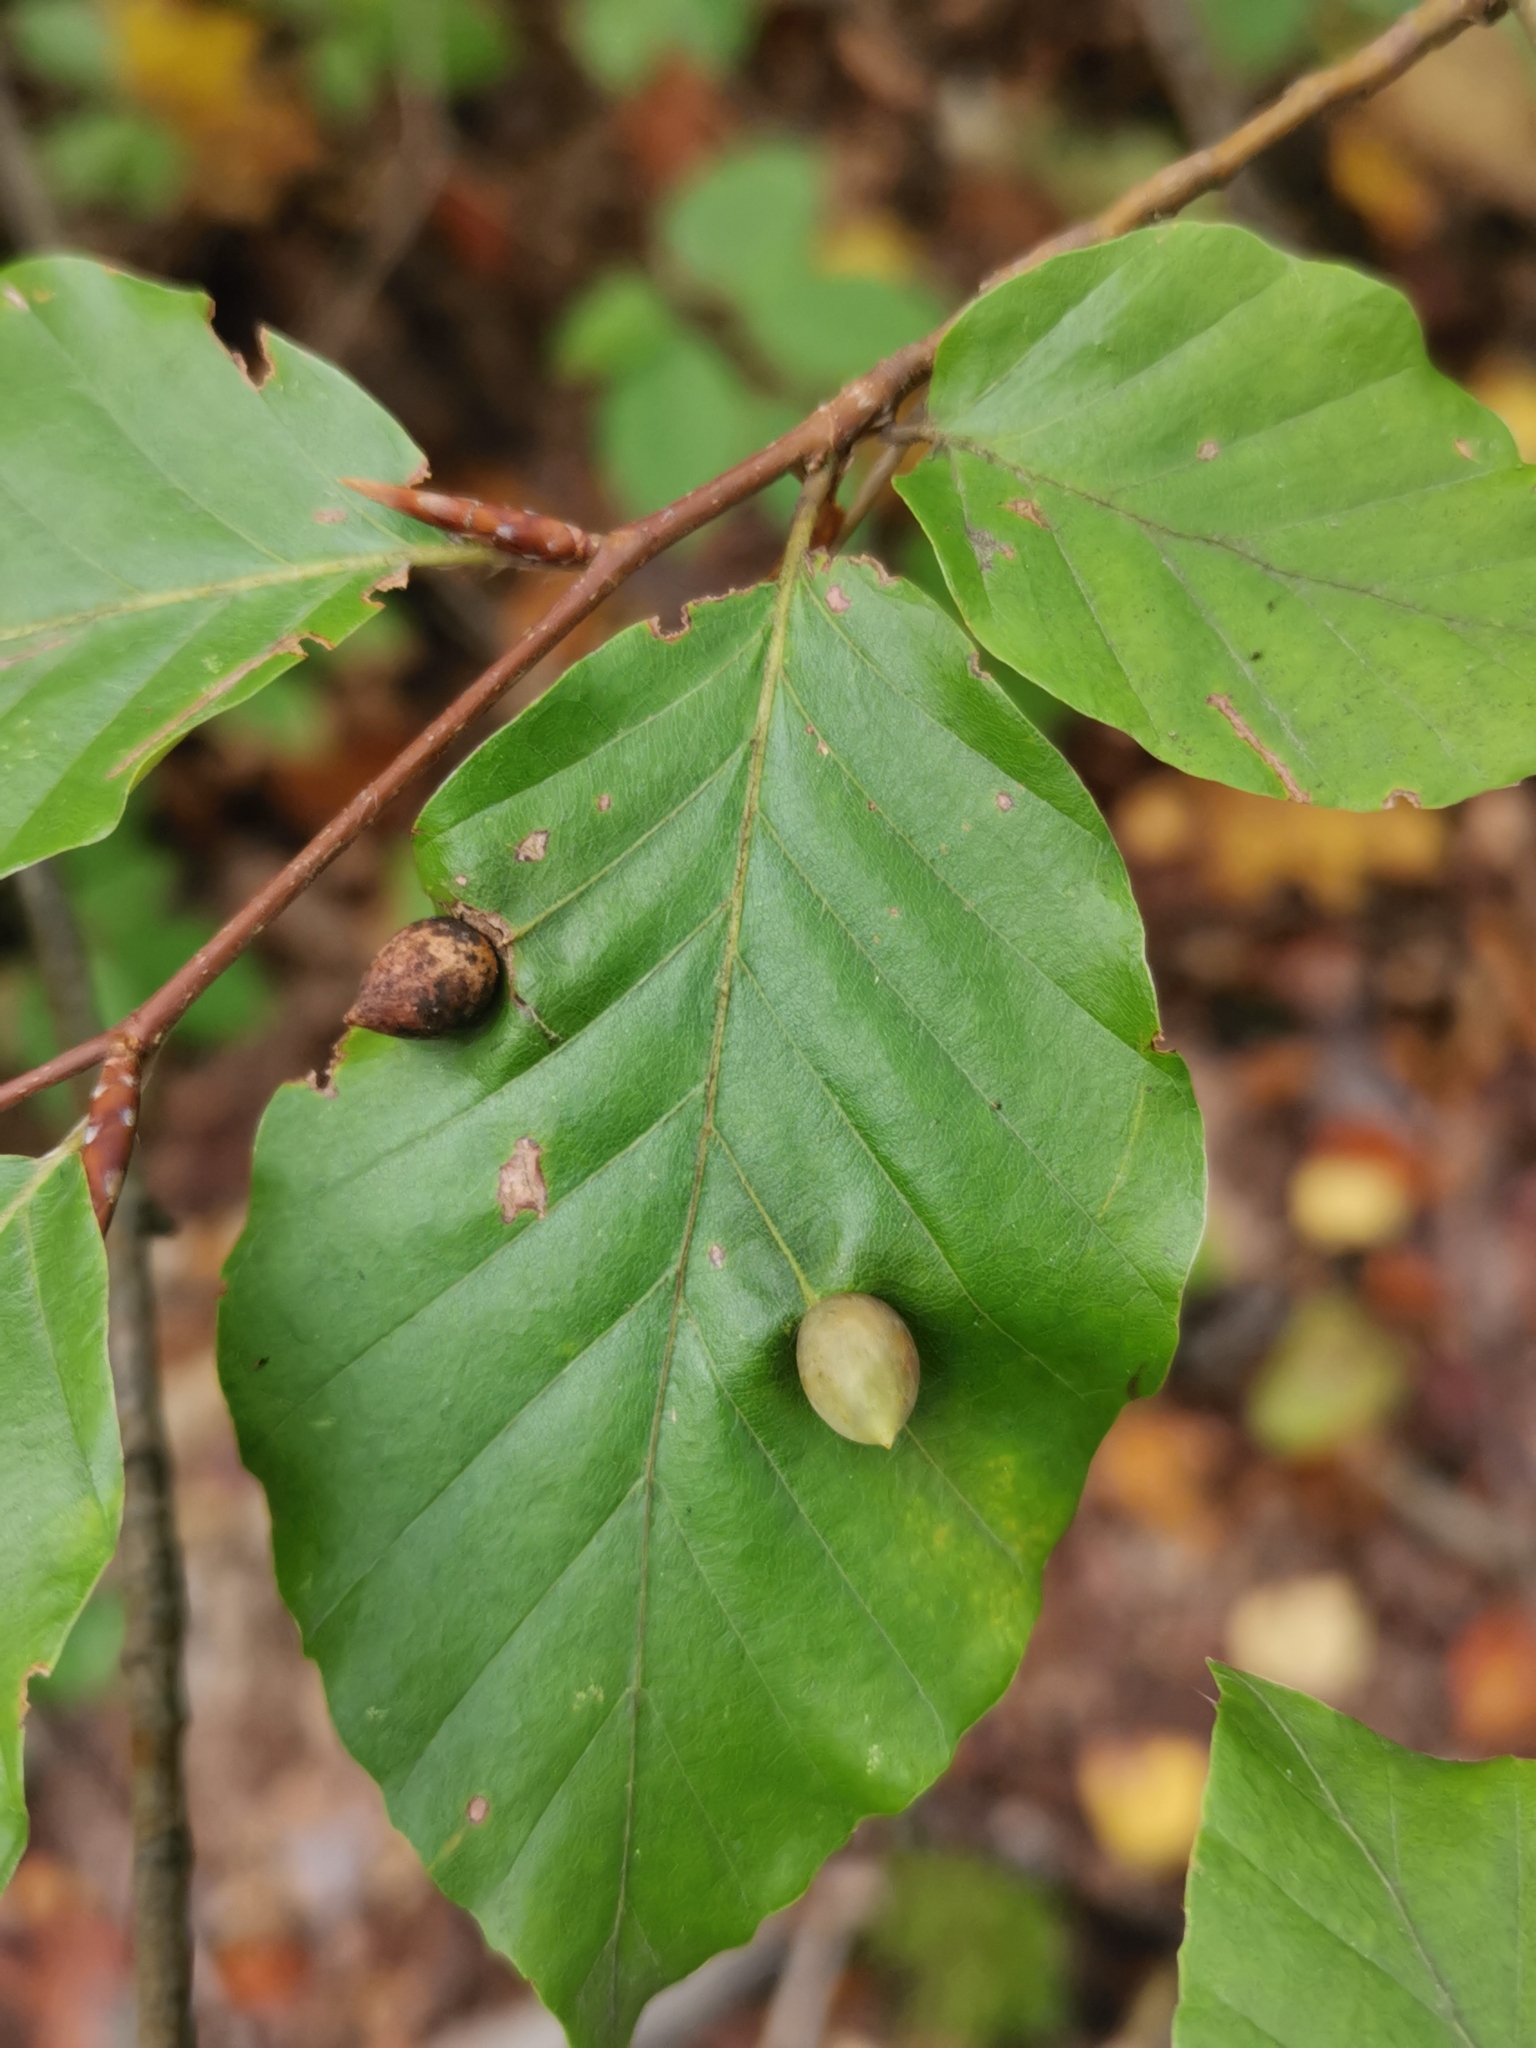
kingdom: Animalia
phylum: Arthropoda
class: Insecta
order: Diptera
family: Cecidomyiidae
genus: Mikiola
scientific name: Mikiola fagi
